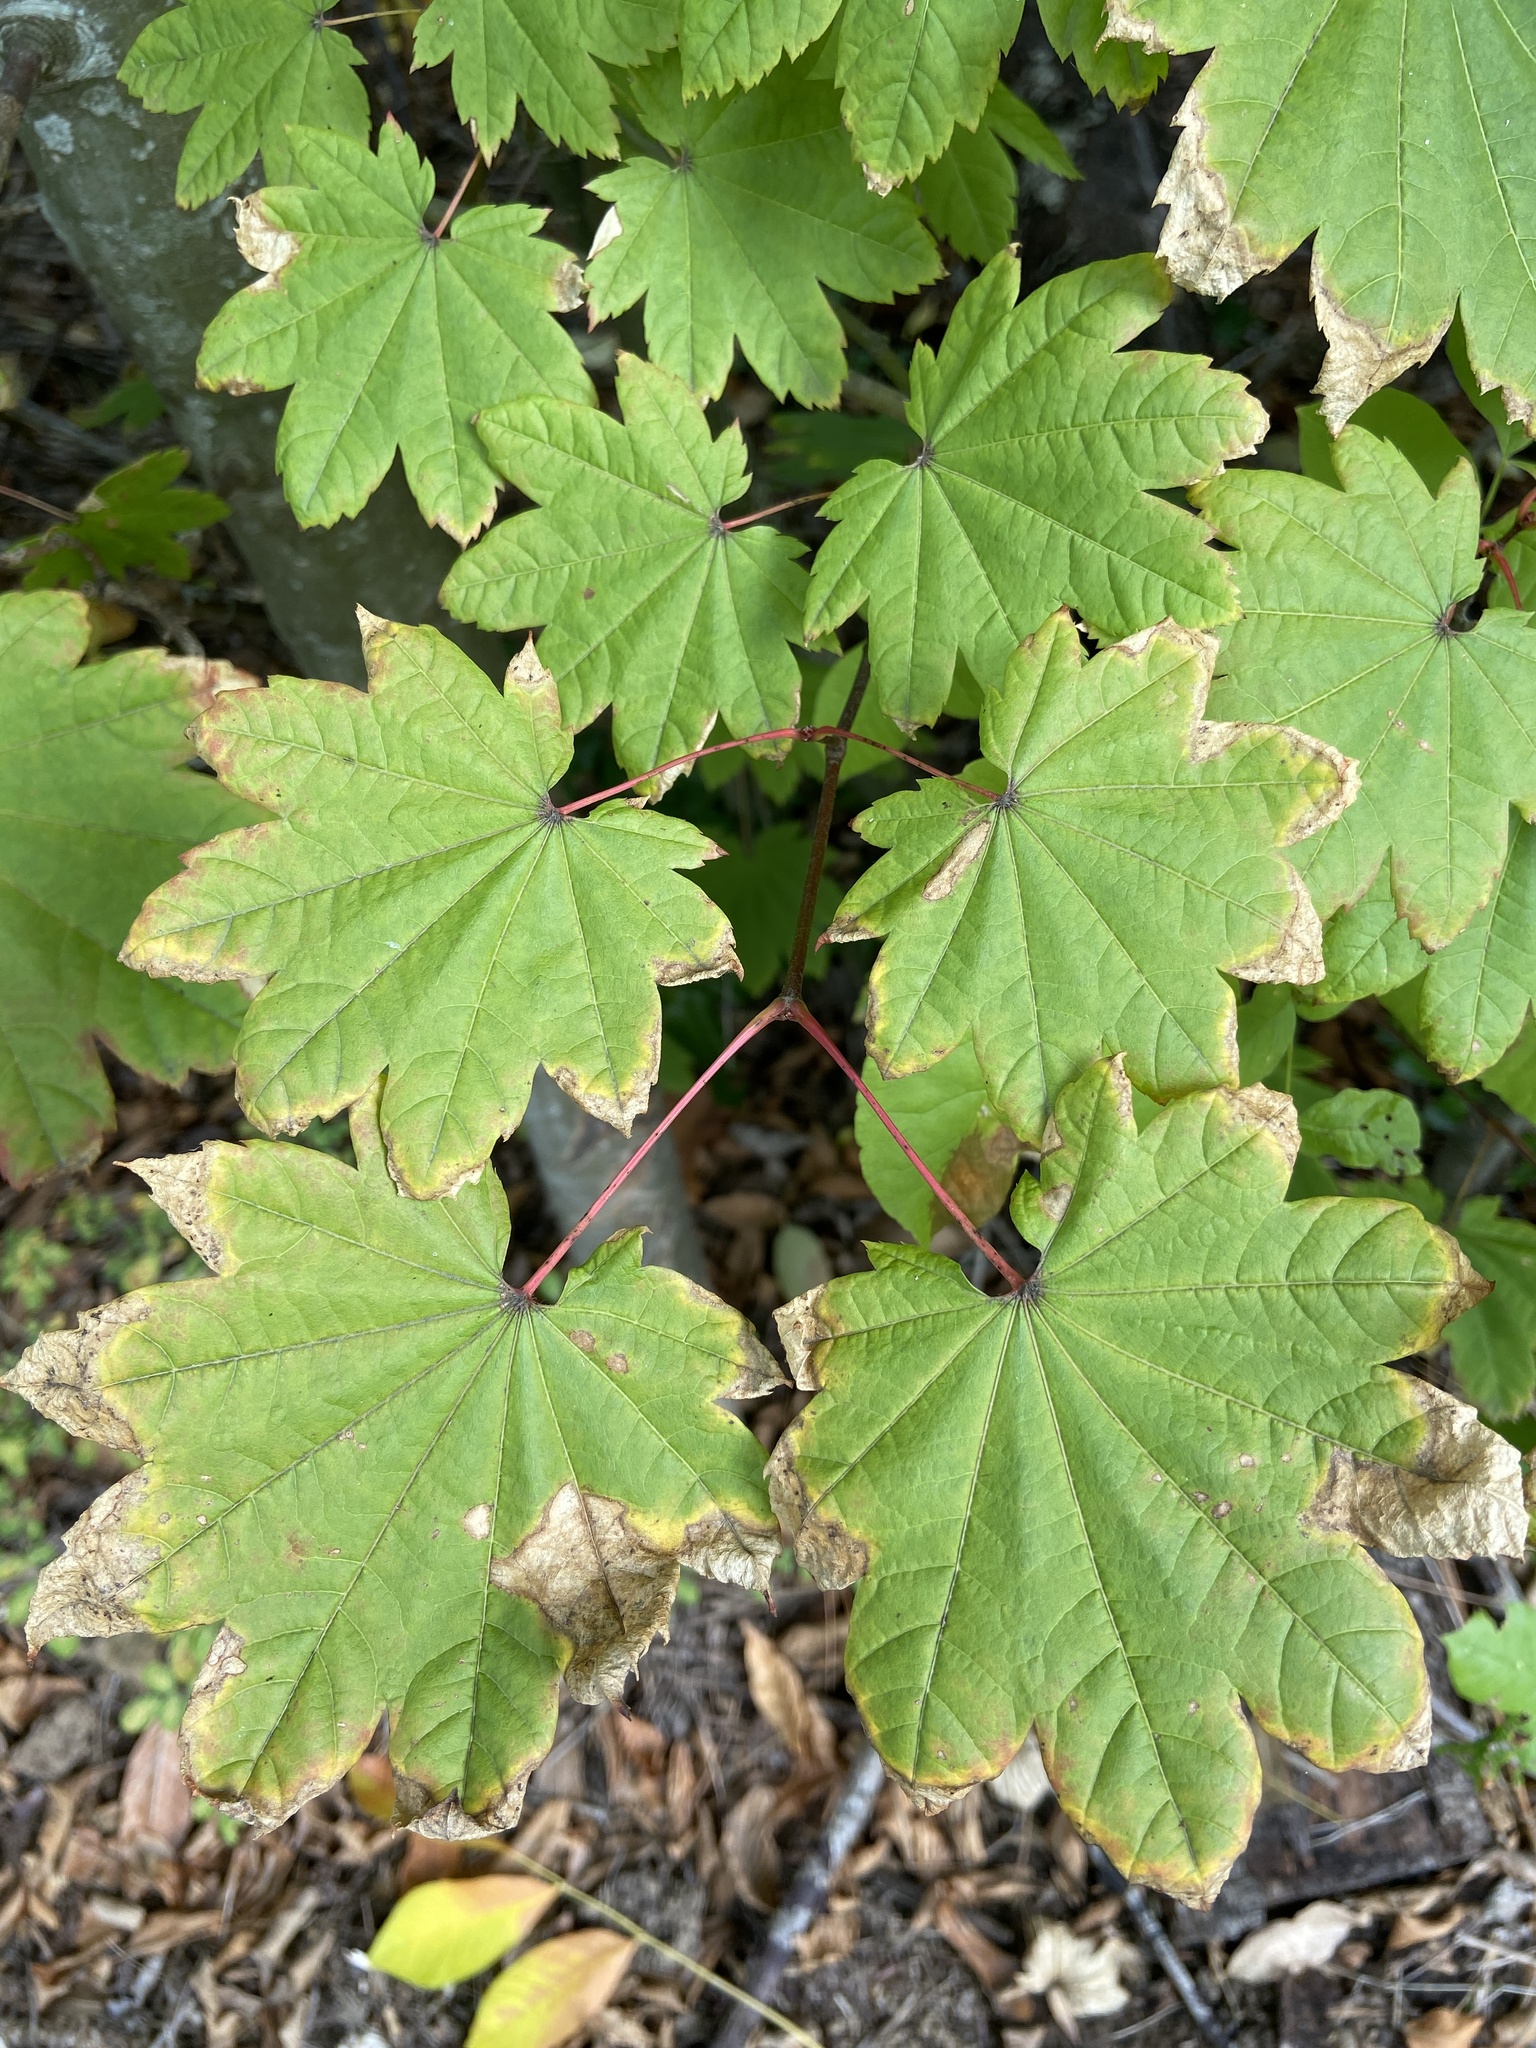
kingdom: Plantae
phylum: Tracheophyta
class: Magnoliopsida
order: Sapindales
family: Sapindaceae
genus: Acer
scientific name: Acer circinatum
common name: Vine maple
